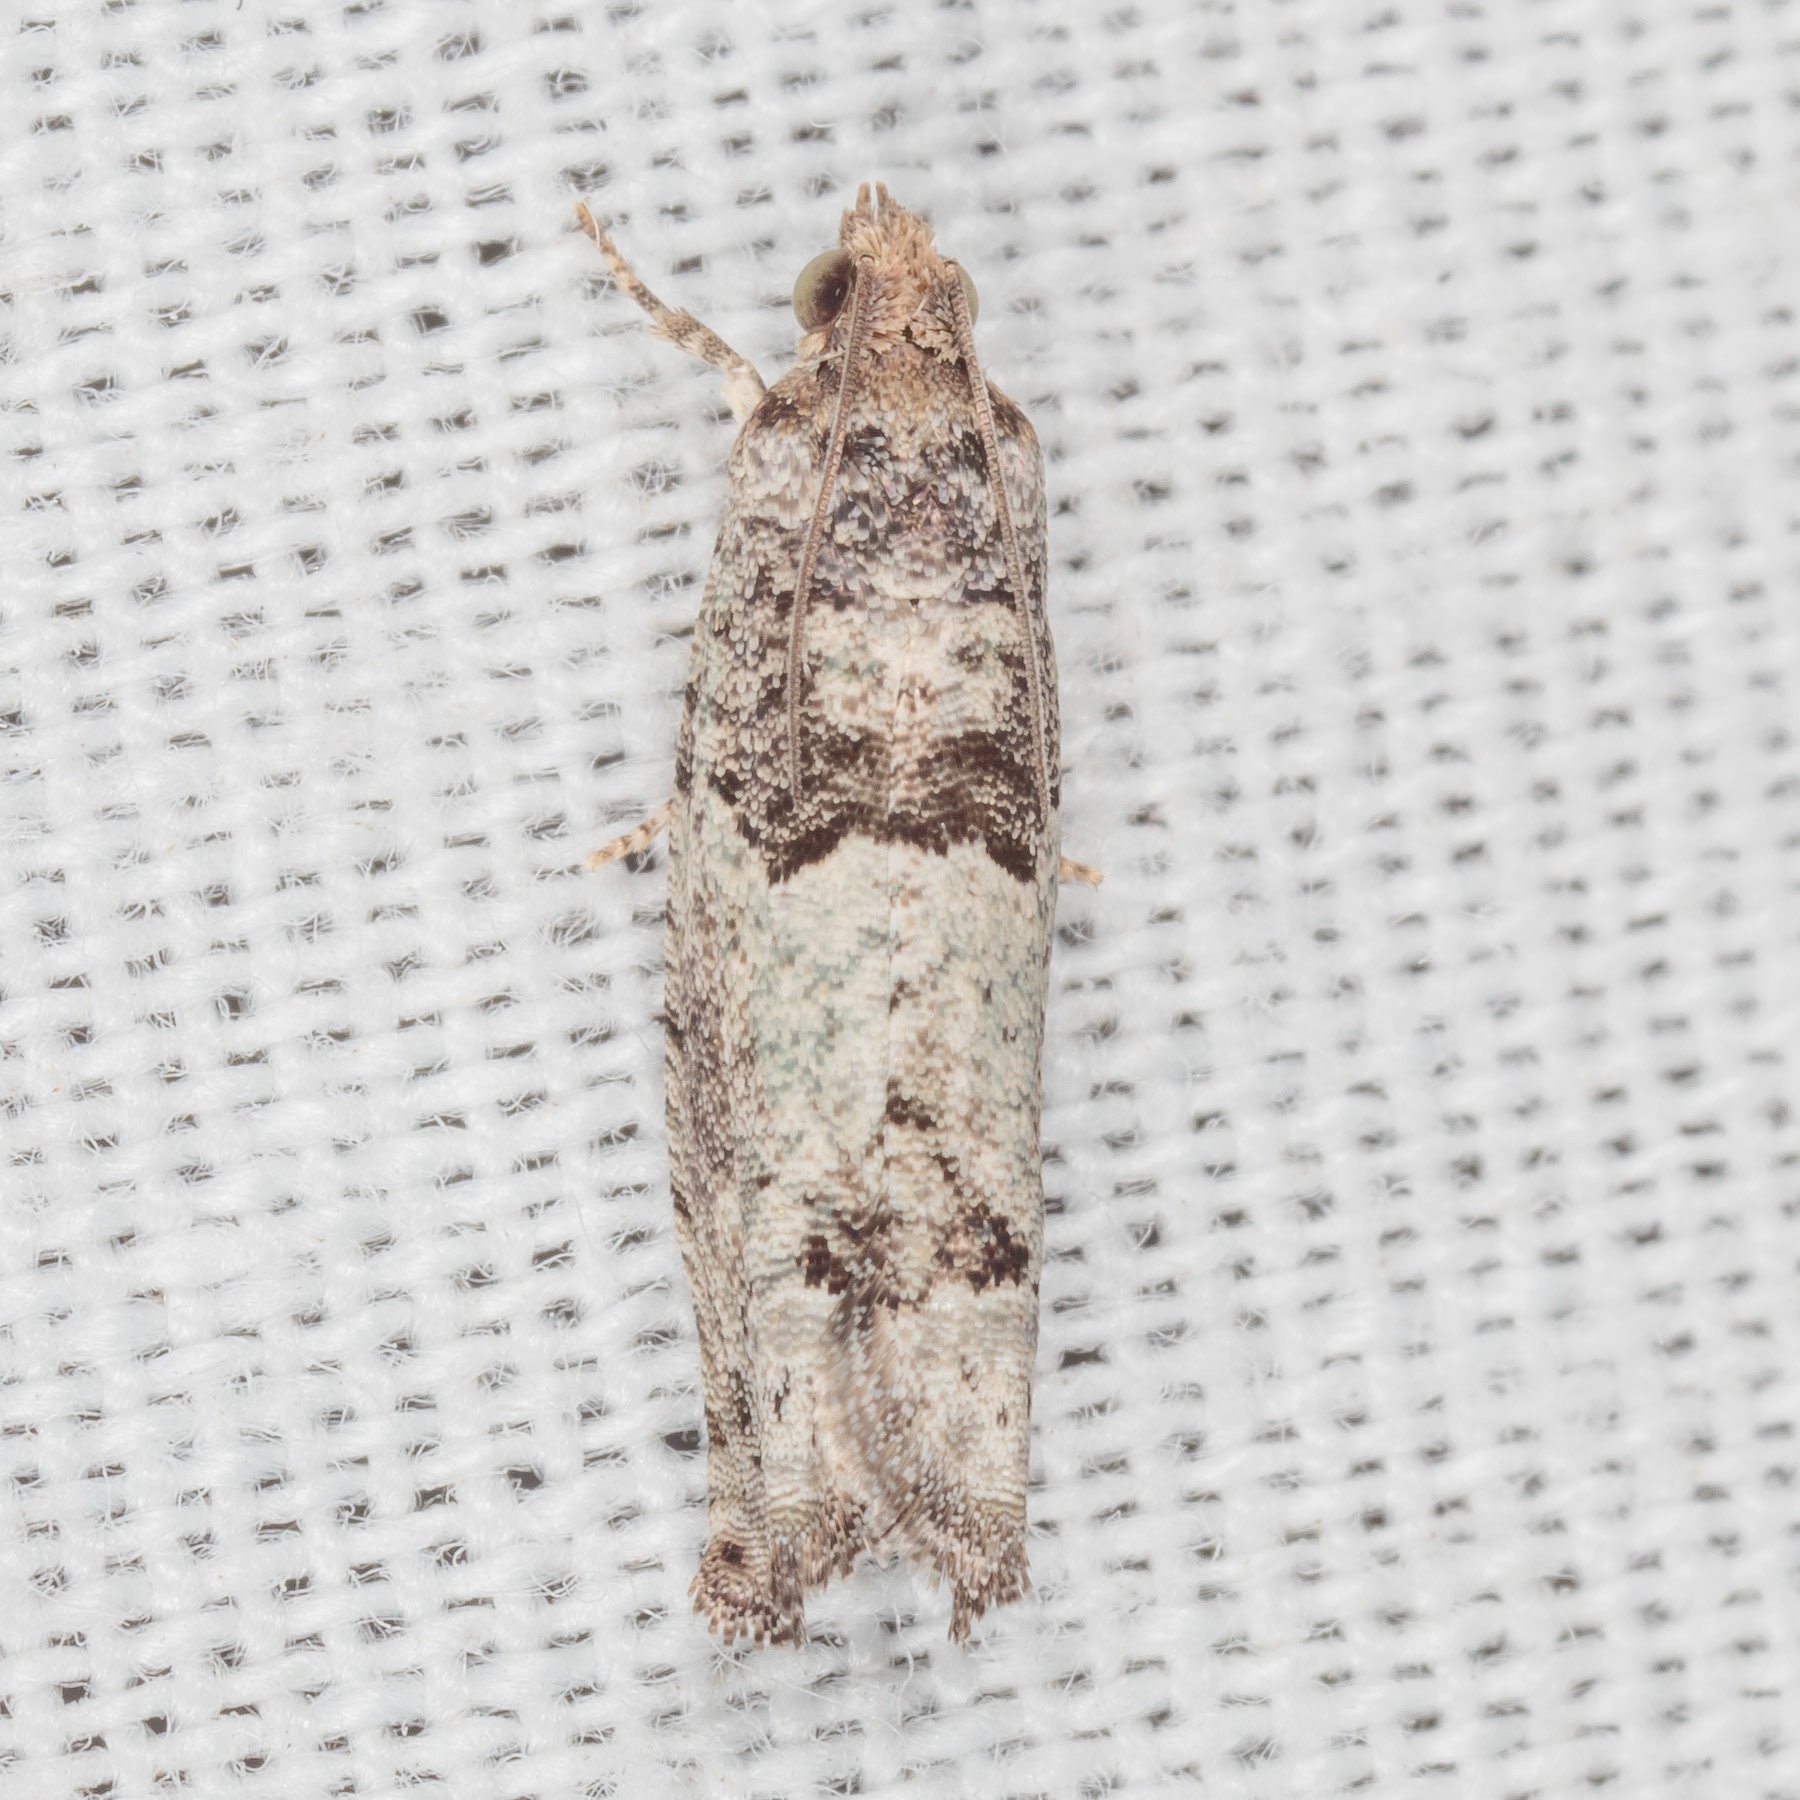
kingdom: Animalia
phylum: Arthropoda
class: Insecta
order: Lepidoptera
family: Tortricidae
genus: Pseudexentera
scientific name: Pseudexentera knudsoni
